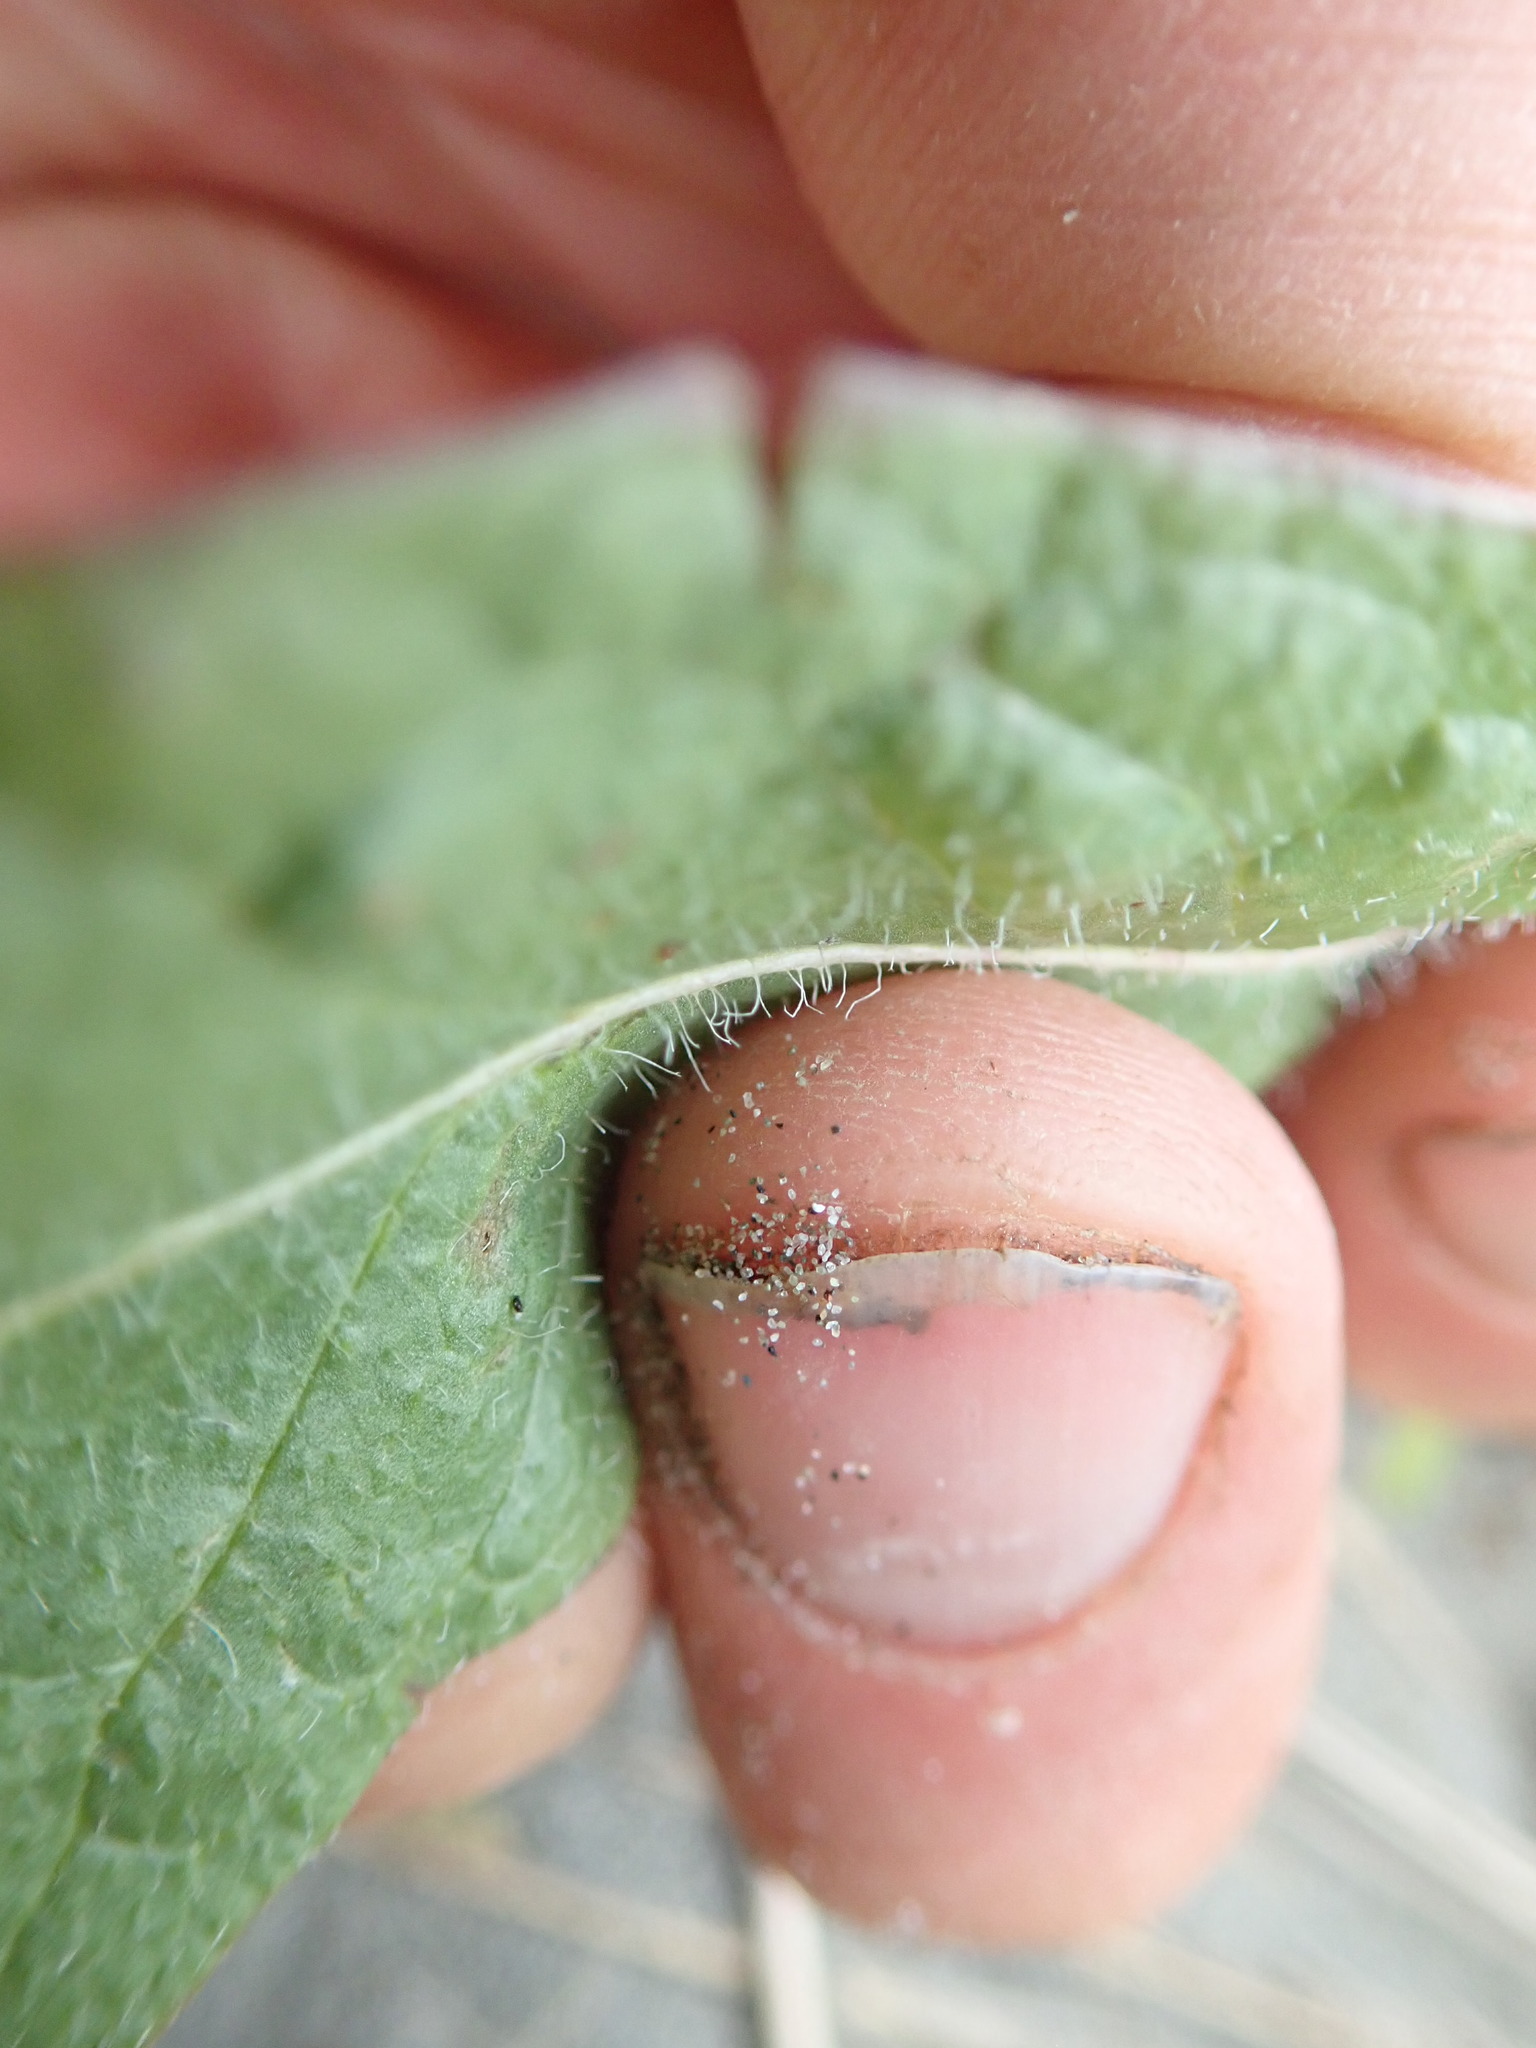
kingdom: Plantae
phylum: Tracheophyta
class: Magnoliopsida
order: Asterales
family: Asteraceae
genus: Hypochaeris
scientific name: Hypochaeris radicata
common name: Flatweed
